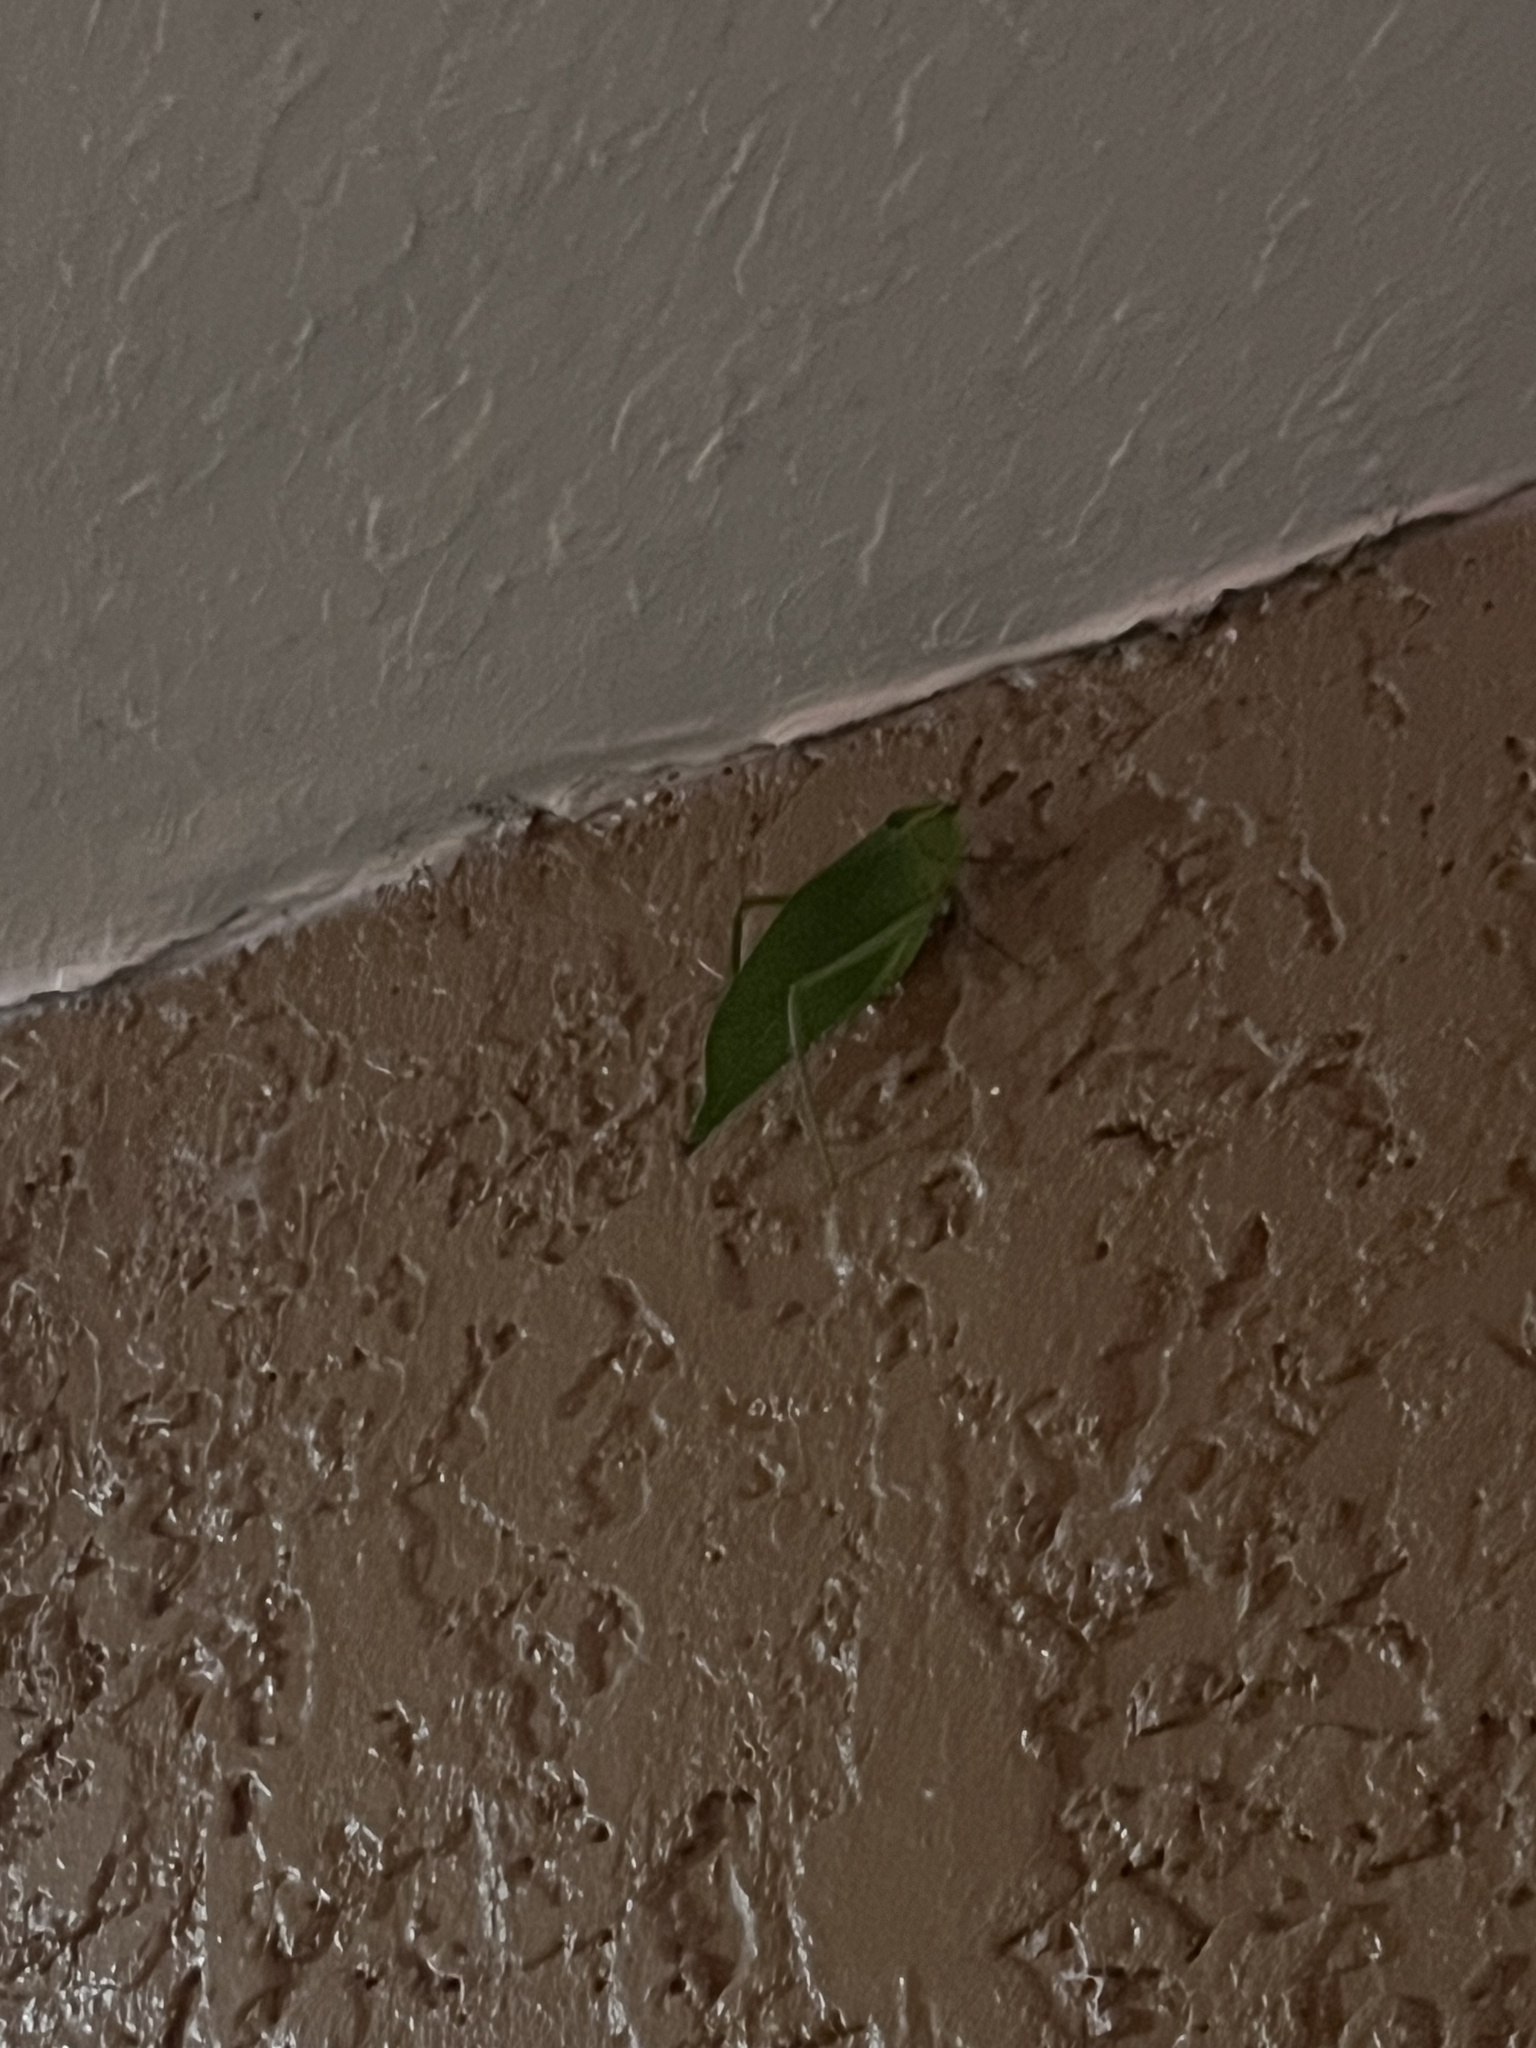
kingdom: Animalia
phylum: Arthropoda
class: Insecta
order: Orthoptera
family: Tettigoniidae
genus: Stilpnochlora
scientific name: Stilpnochlora couloniana
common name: Giant katydid
